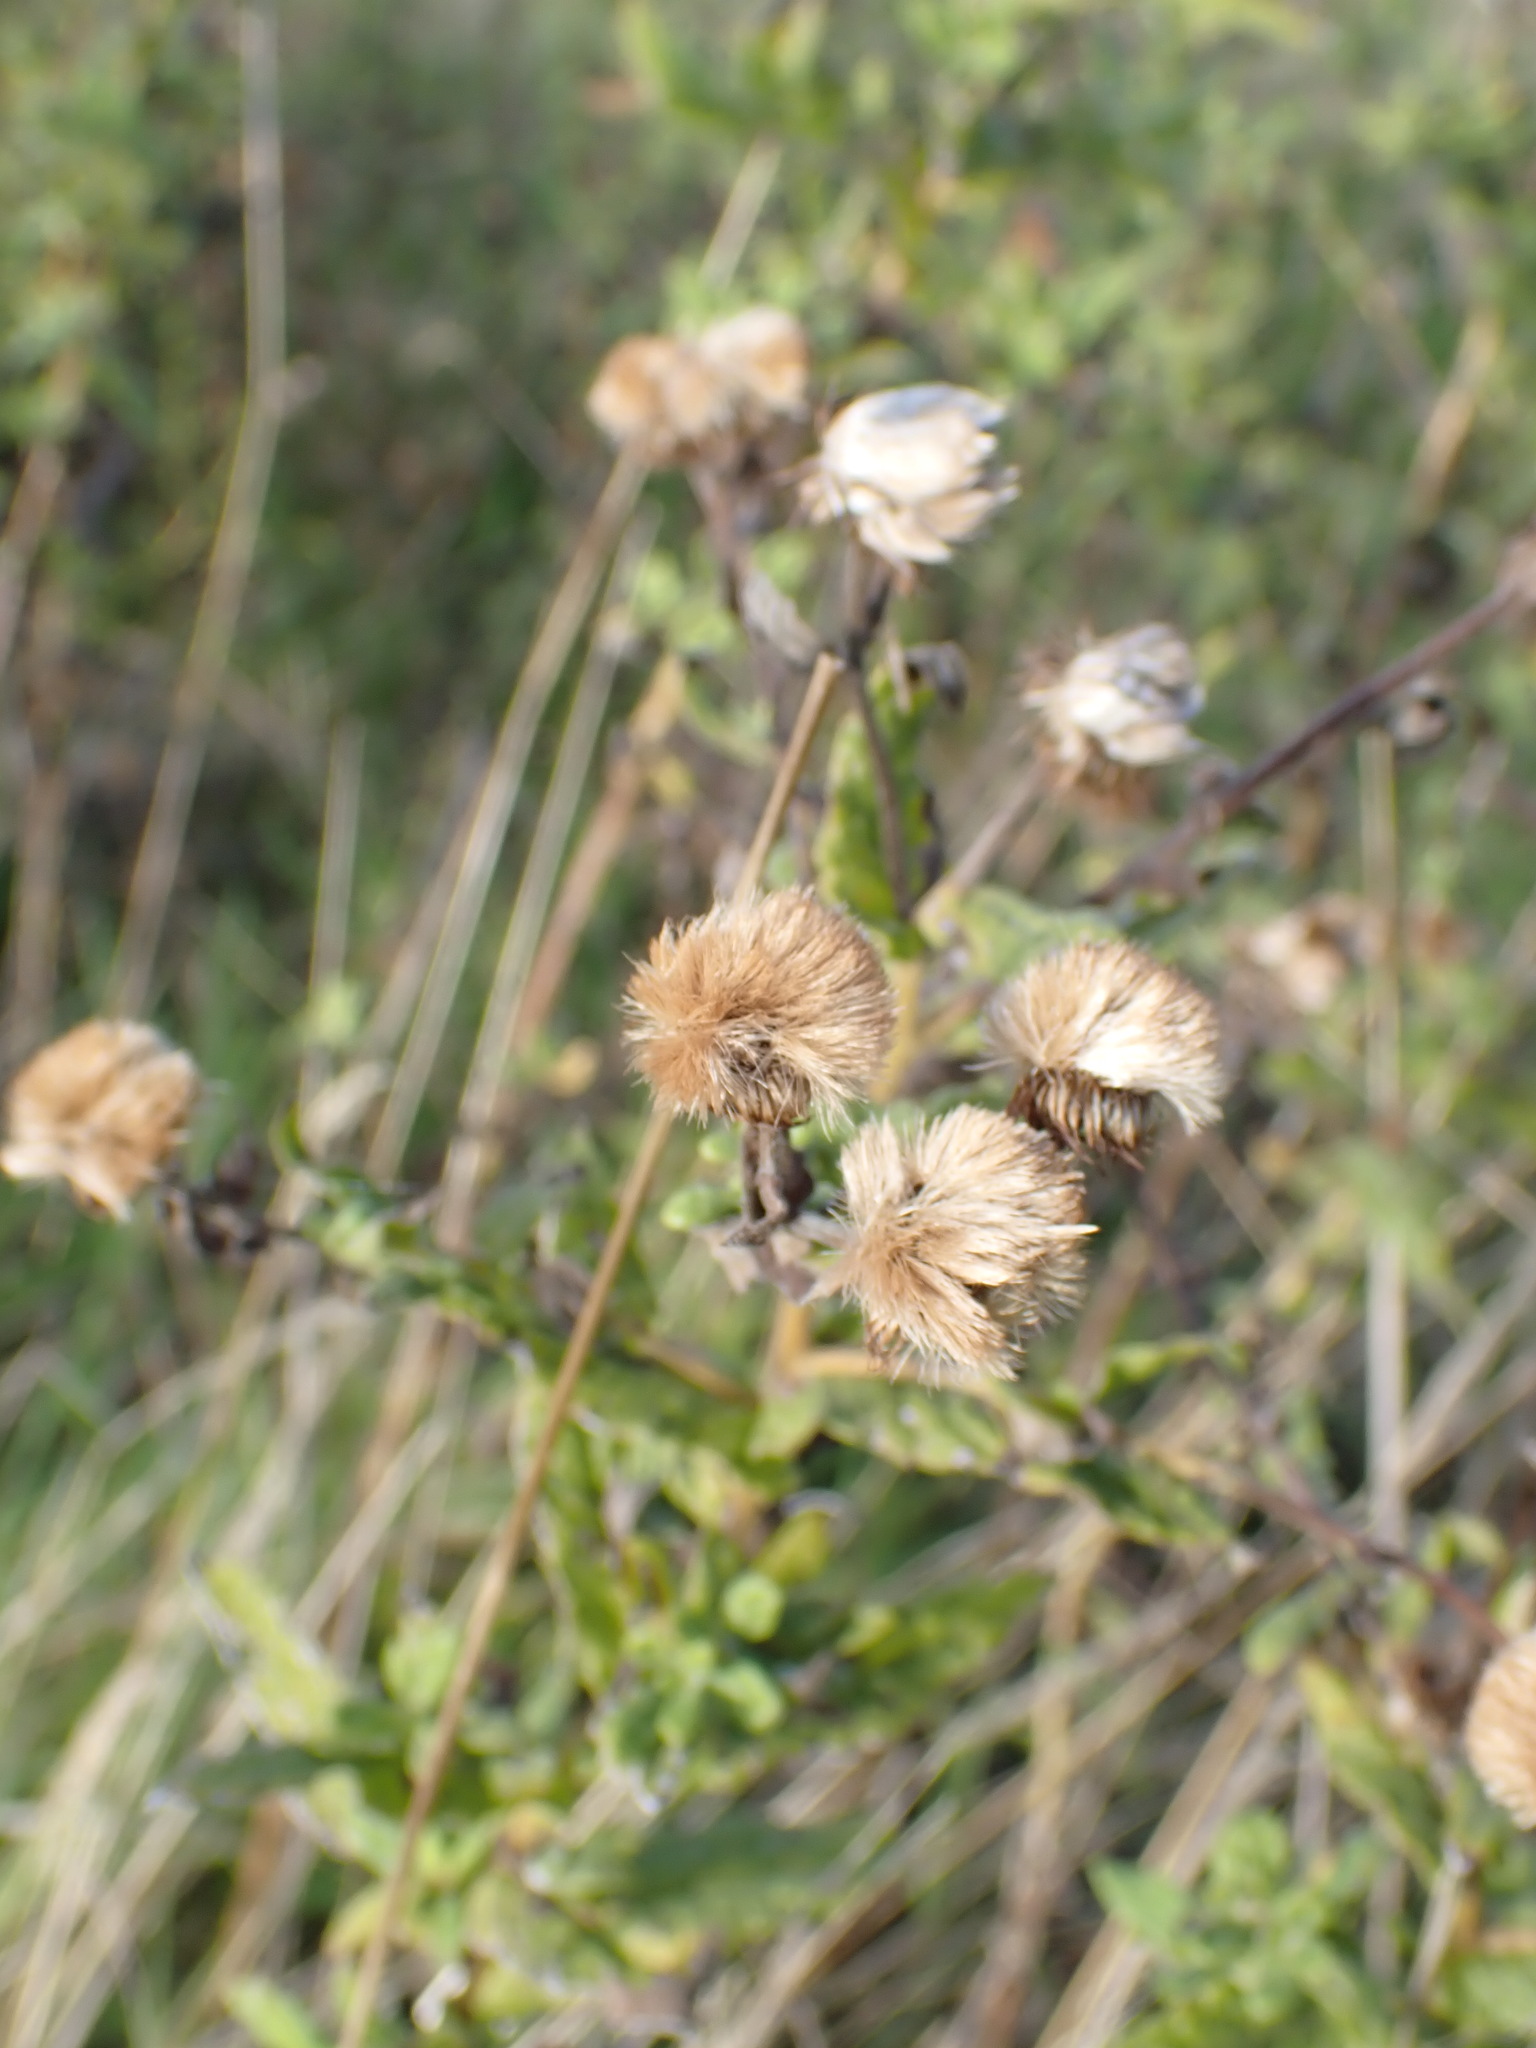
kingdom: Plantae
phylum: Tracheophyta
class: Magnoliopsida
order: Asterales
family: Asteraceae
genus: Pulicaria
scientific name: Pulicaria dysenterica
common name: Common fleabane
